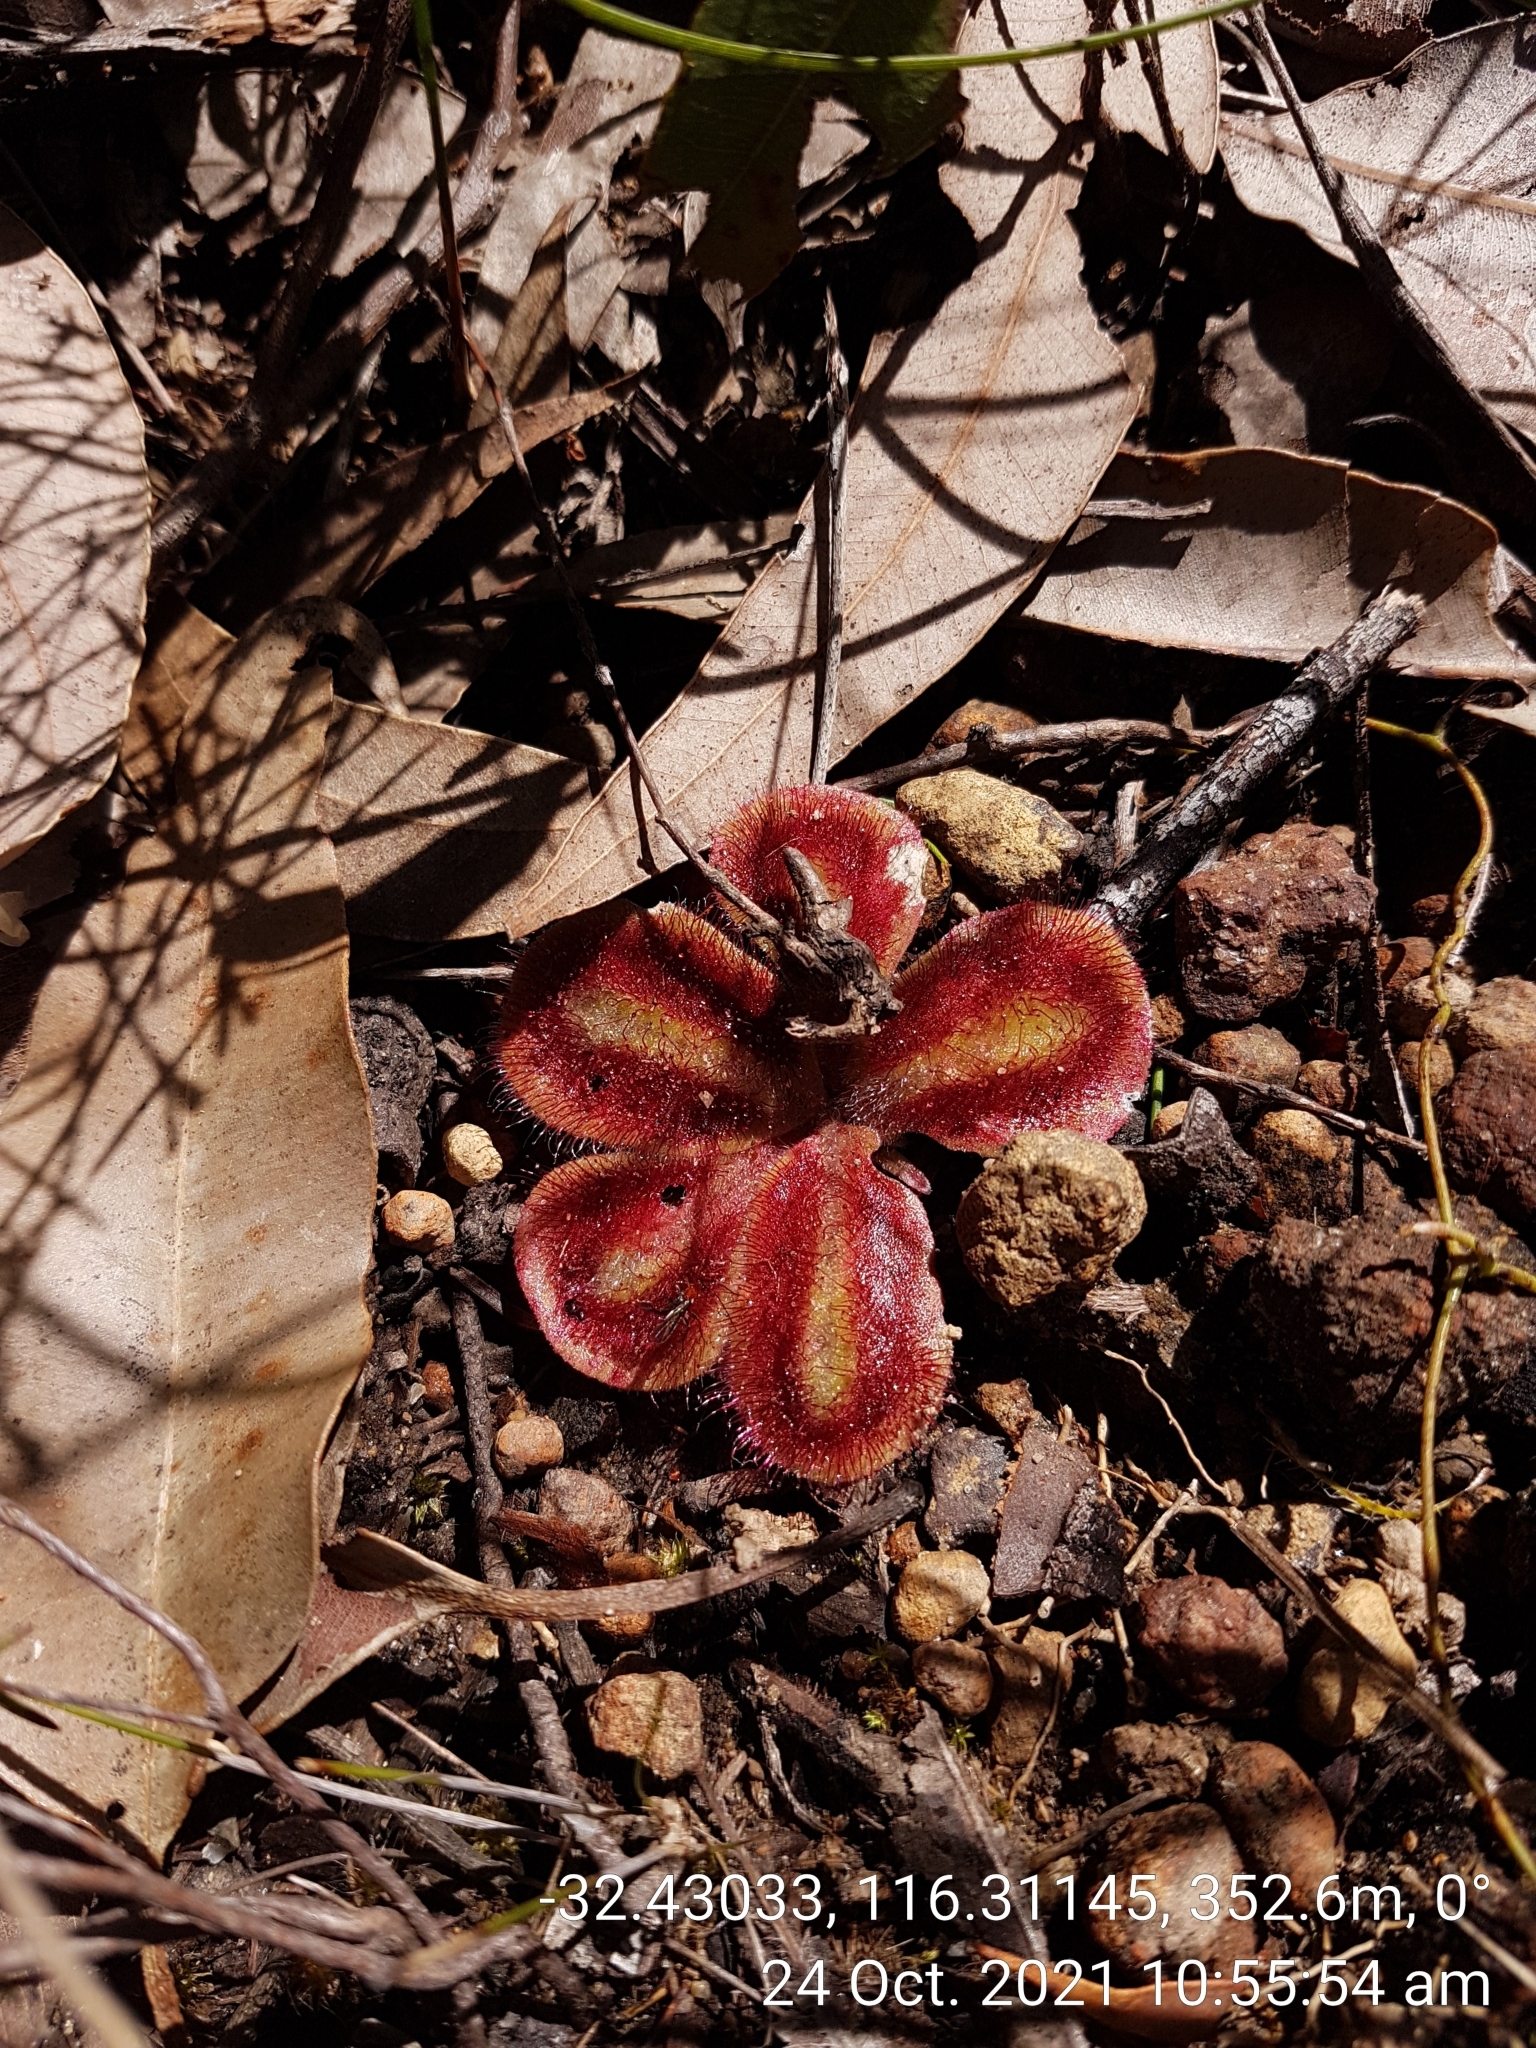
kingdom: Plantae
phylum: Tracheophyta
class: Magnoliopsida
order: Caryophyllales
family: Droseraceae
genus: Drosera
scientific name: Drosera erythrorhiza
